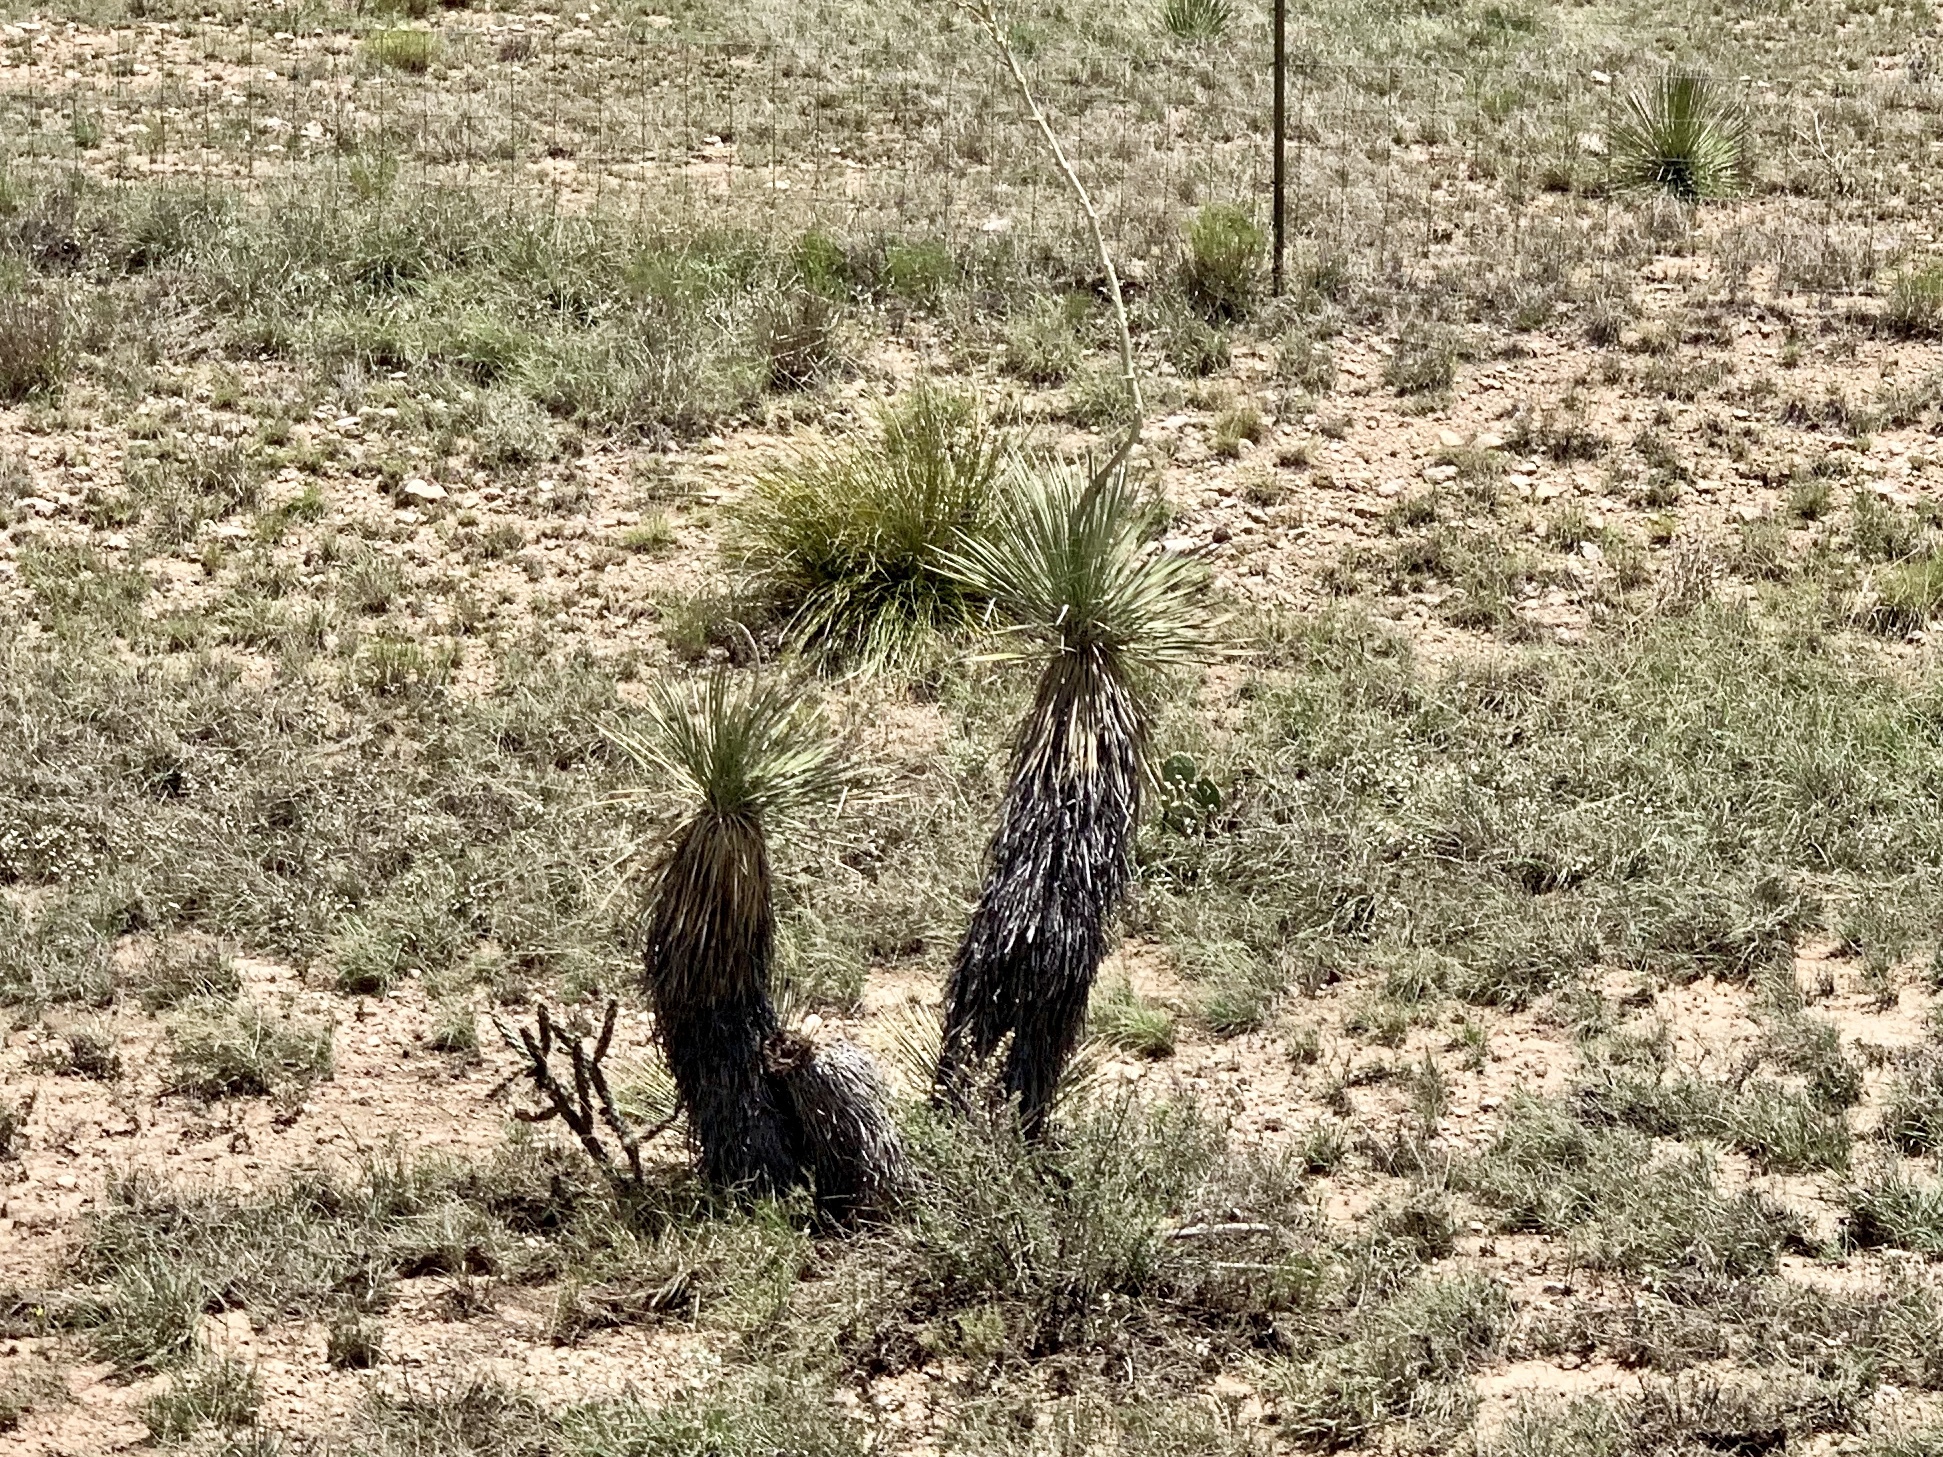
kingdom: Plantae
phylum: Tracheophyta
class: Liliopsida
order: Asparagales
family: Asparagaceae
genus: Yucca
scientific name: Yucca elata
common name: Palmella
